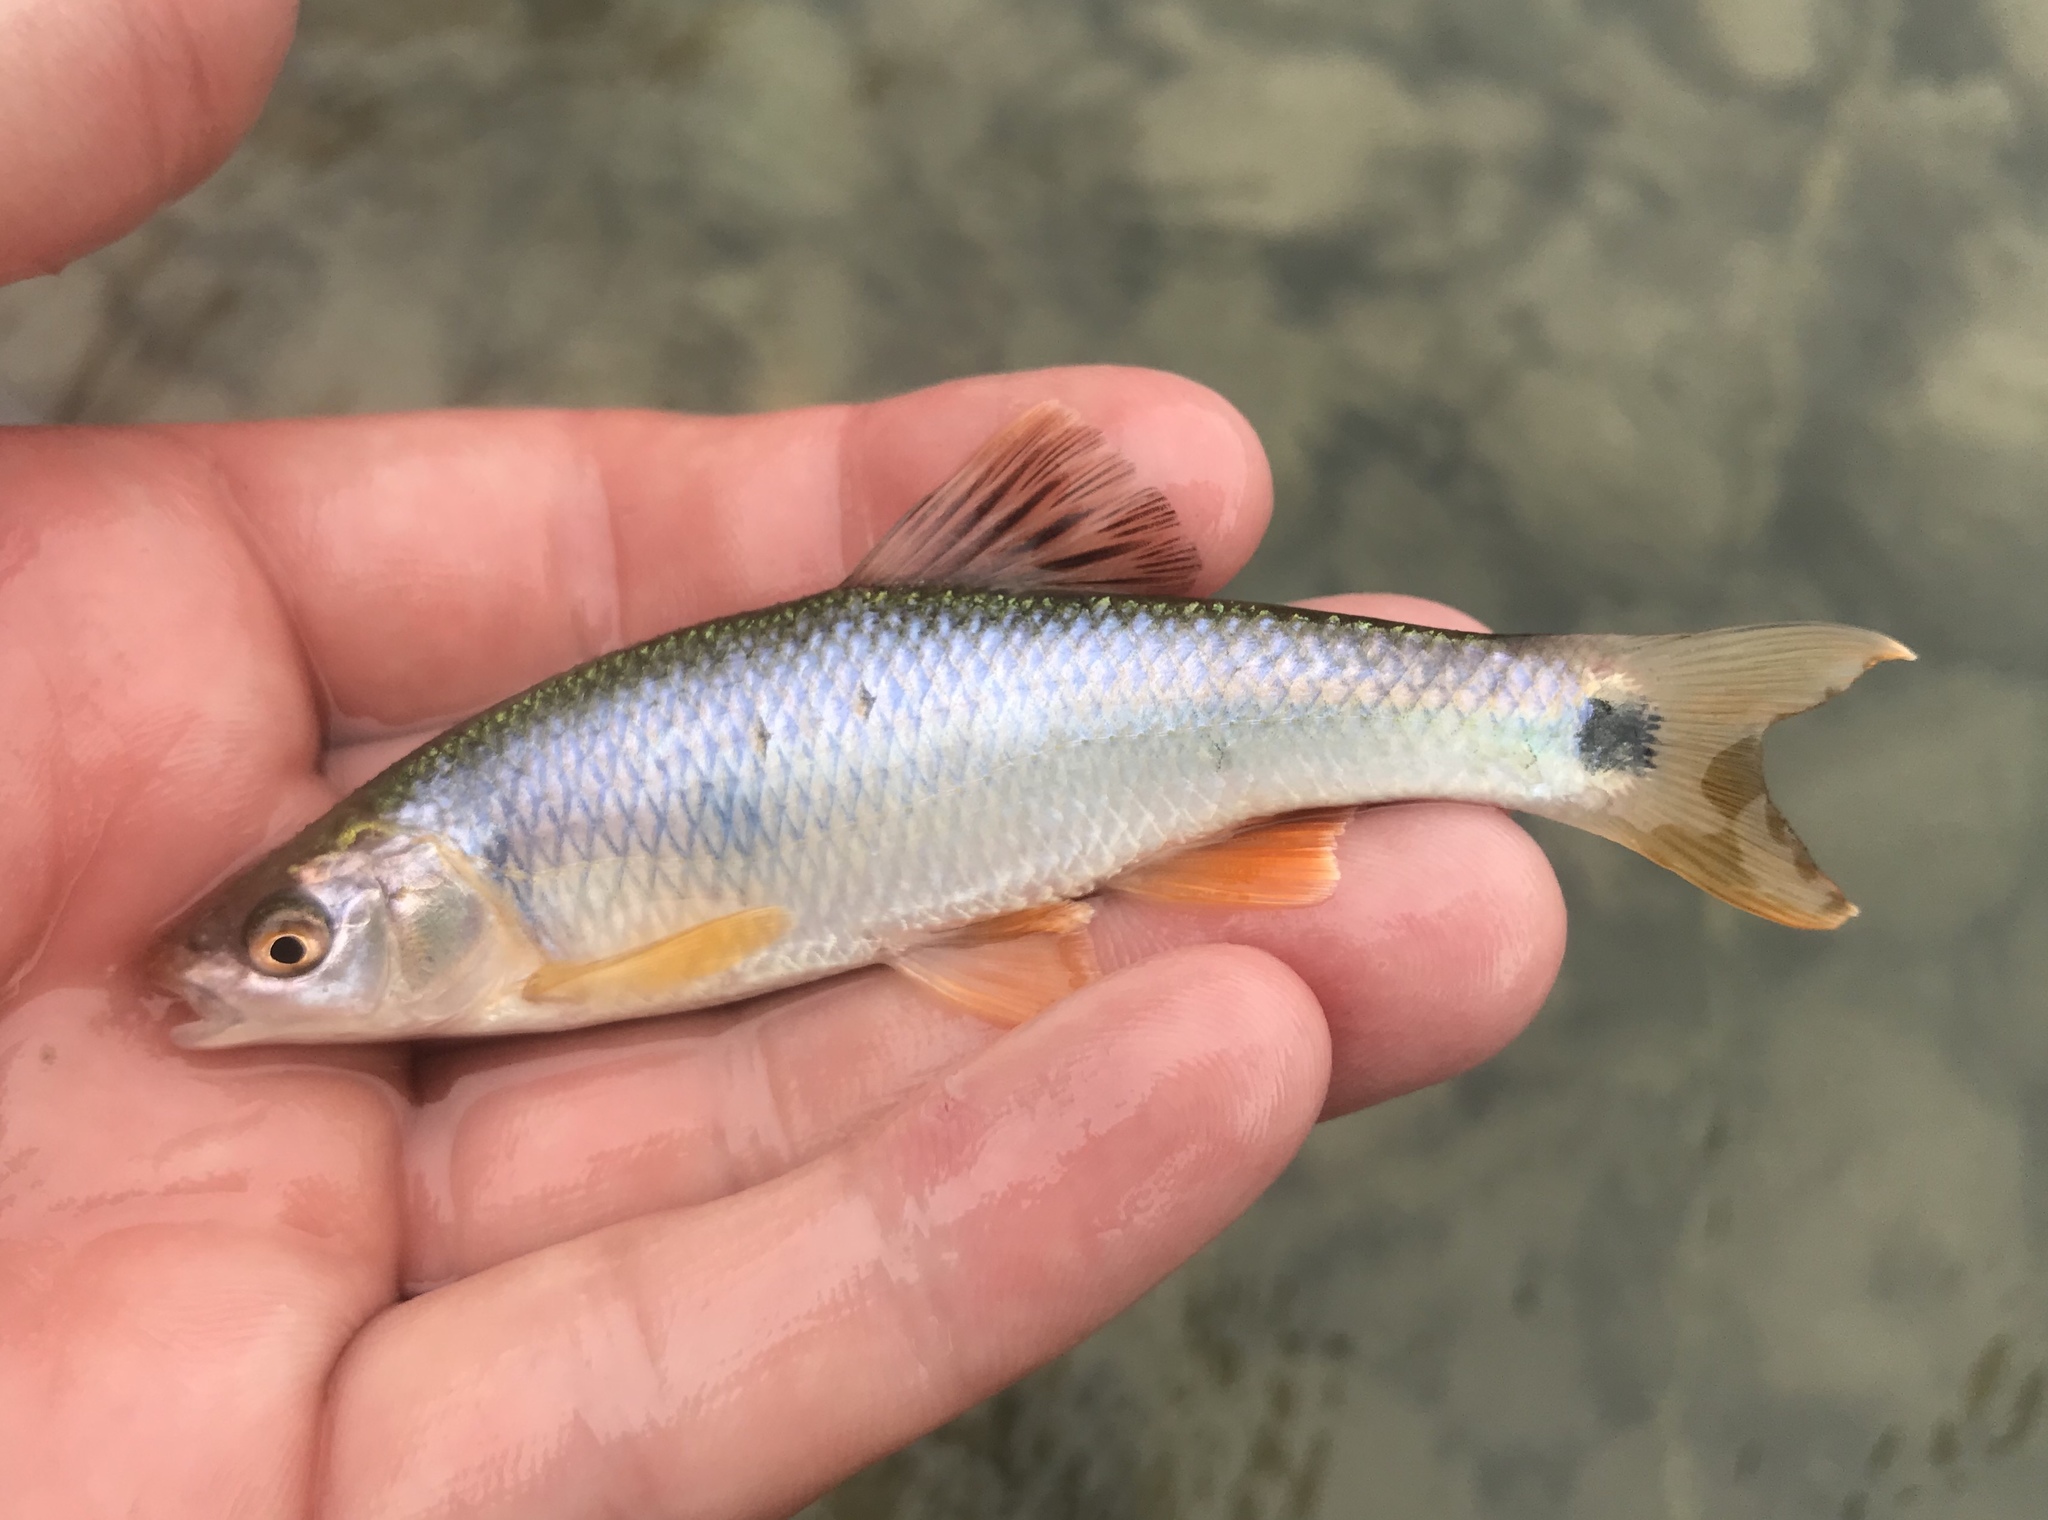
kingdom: Animalia
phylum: Chordata
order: Cypriniformes
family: Cyprinidae
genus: Cyprinella
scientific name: Cyprinella venusta
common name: Blacktail shiner
